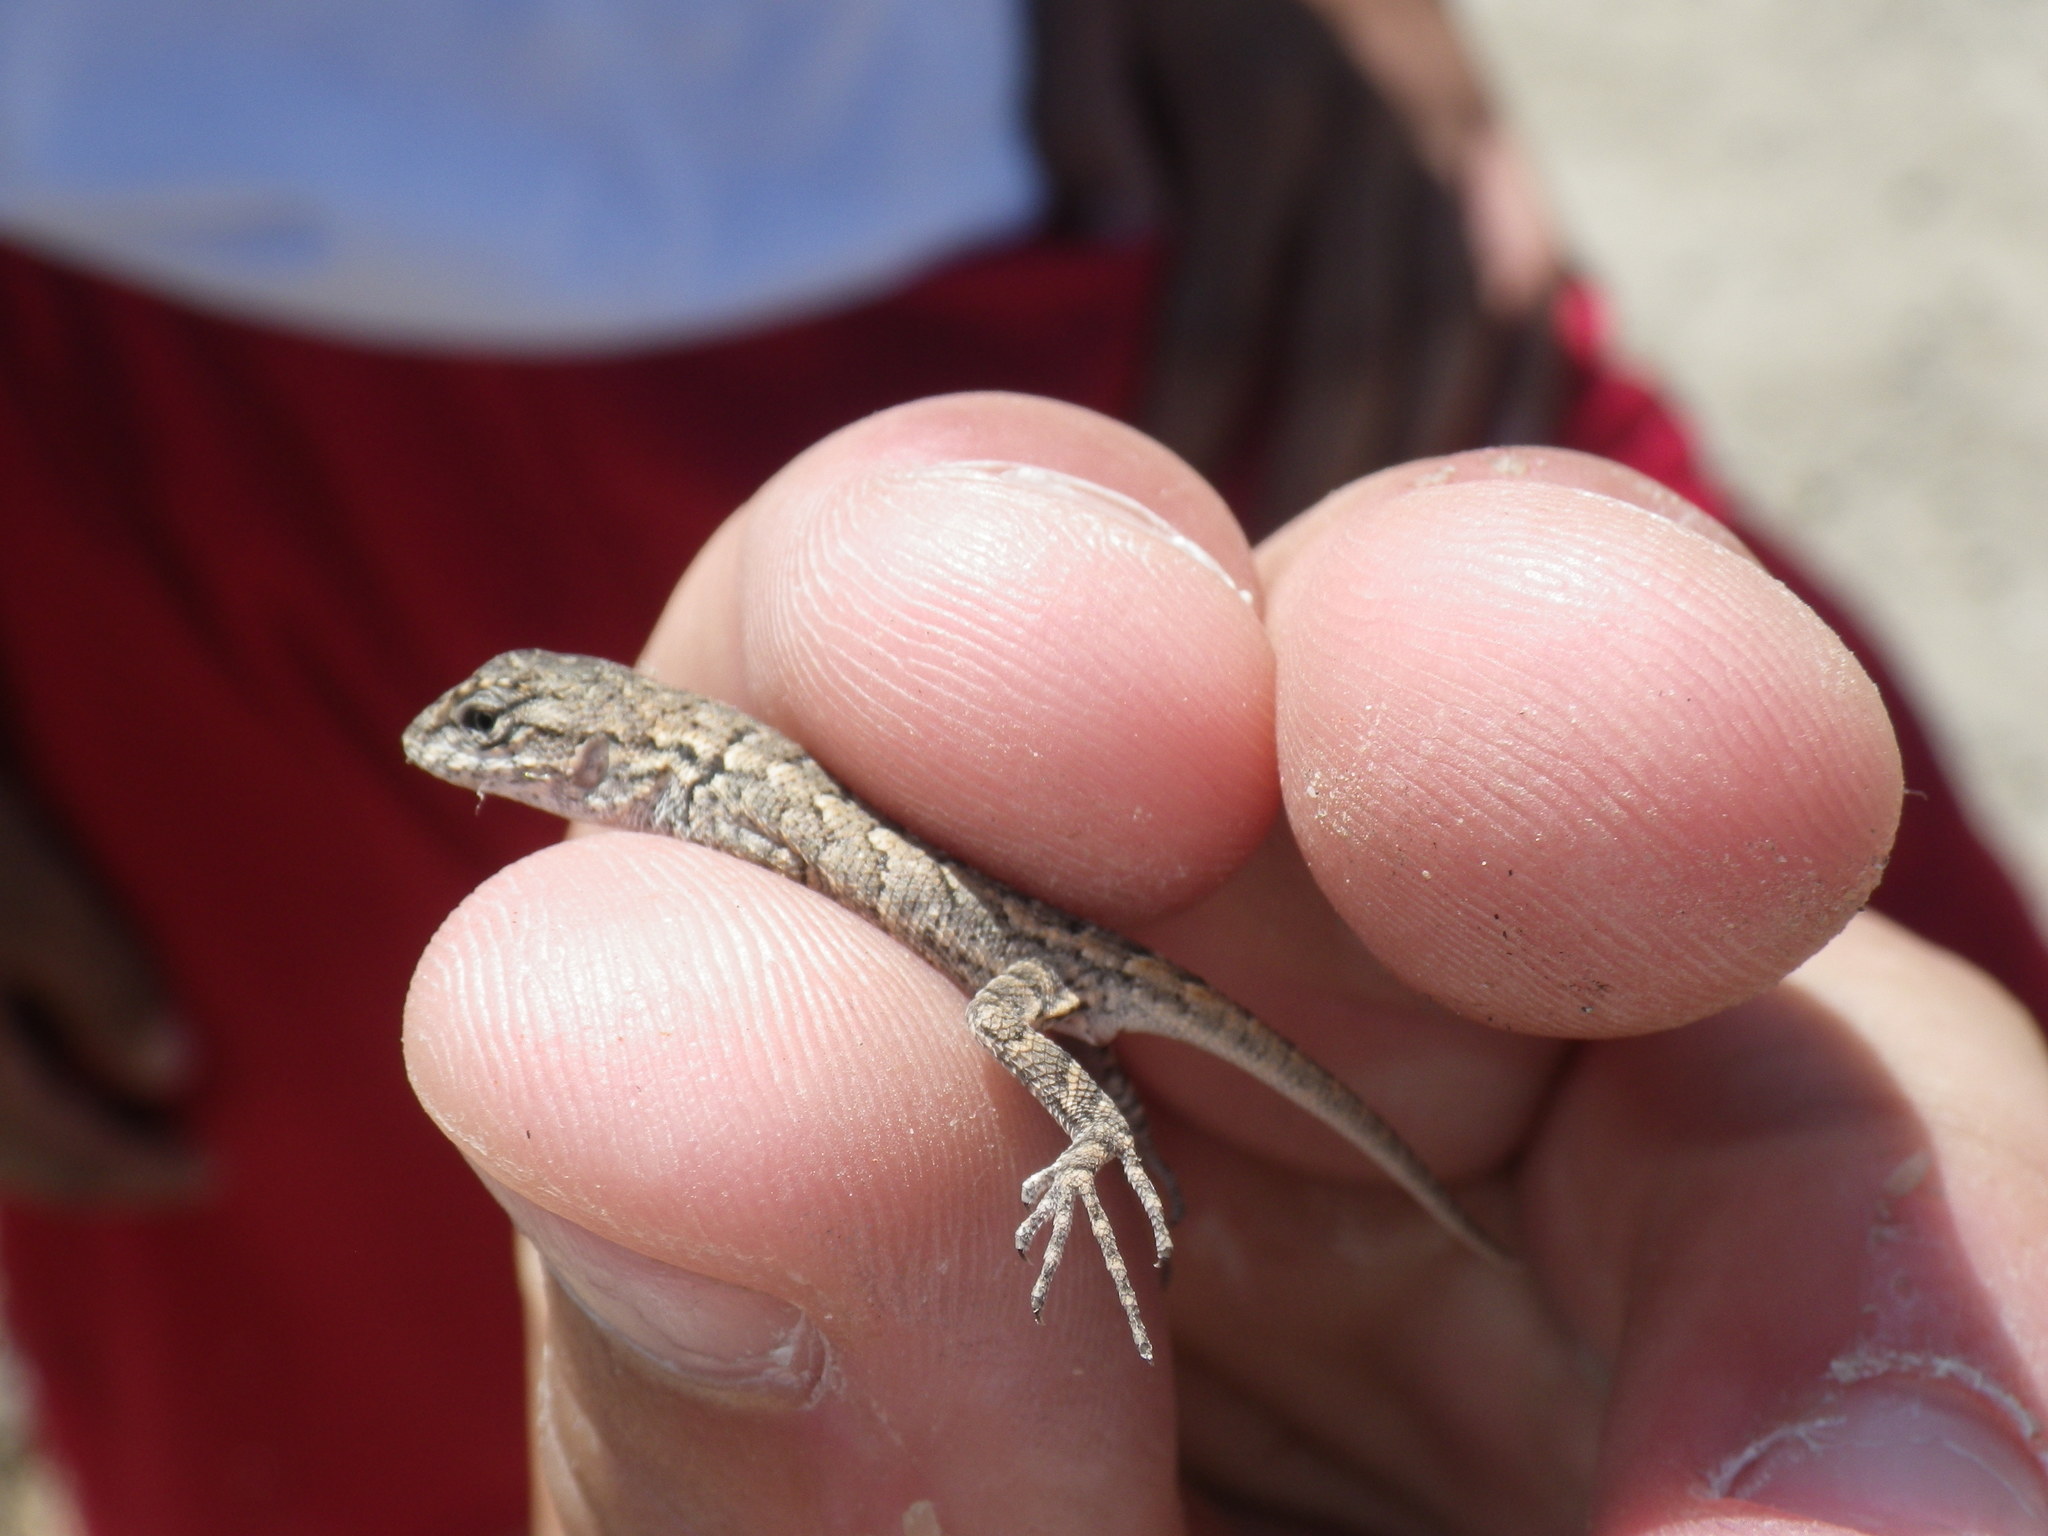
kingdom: Animalia
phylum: Chordata
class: Squamata
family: Phrynosomatidae
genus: Sceloporus
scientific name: Sceloporus occidentalis
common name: Western fence lizard
